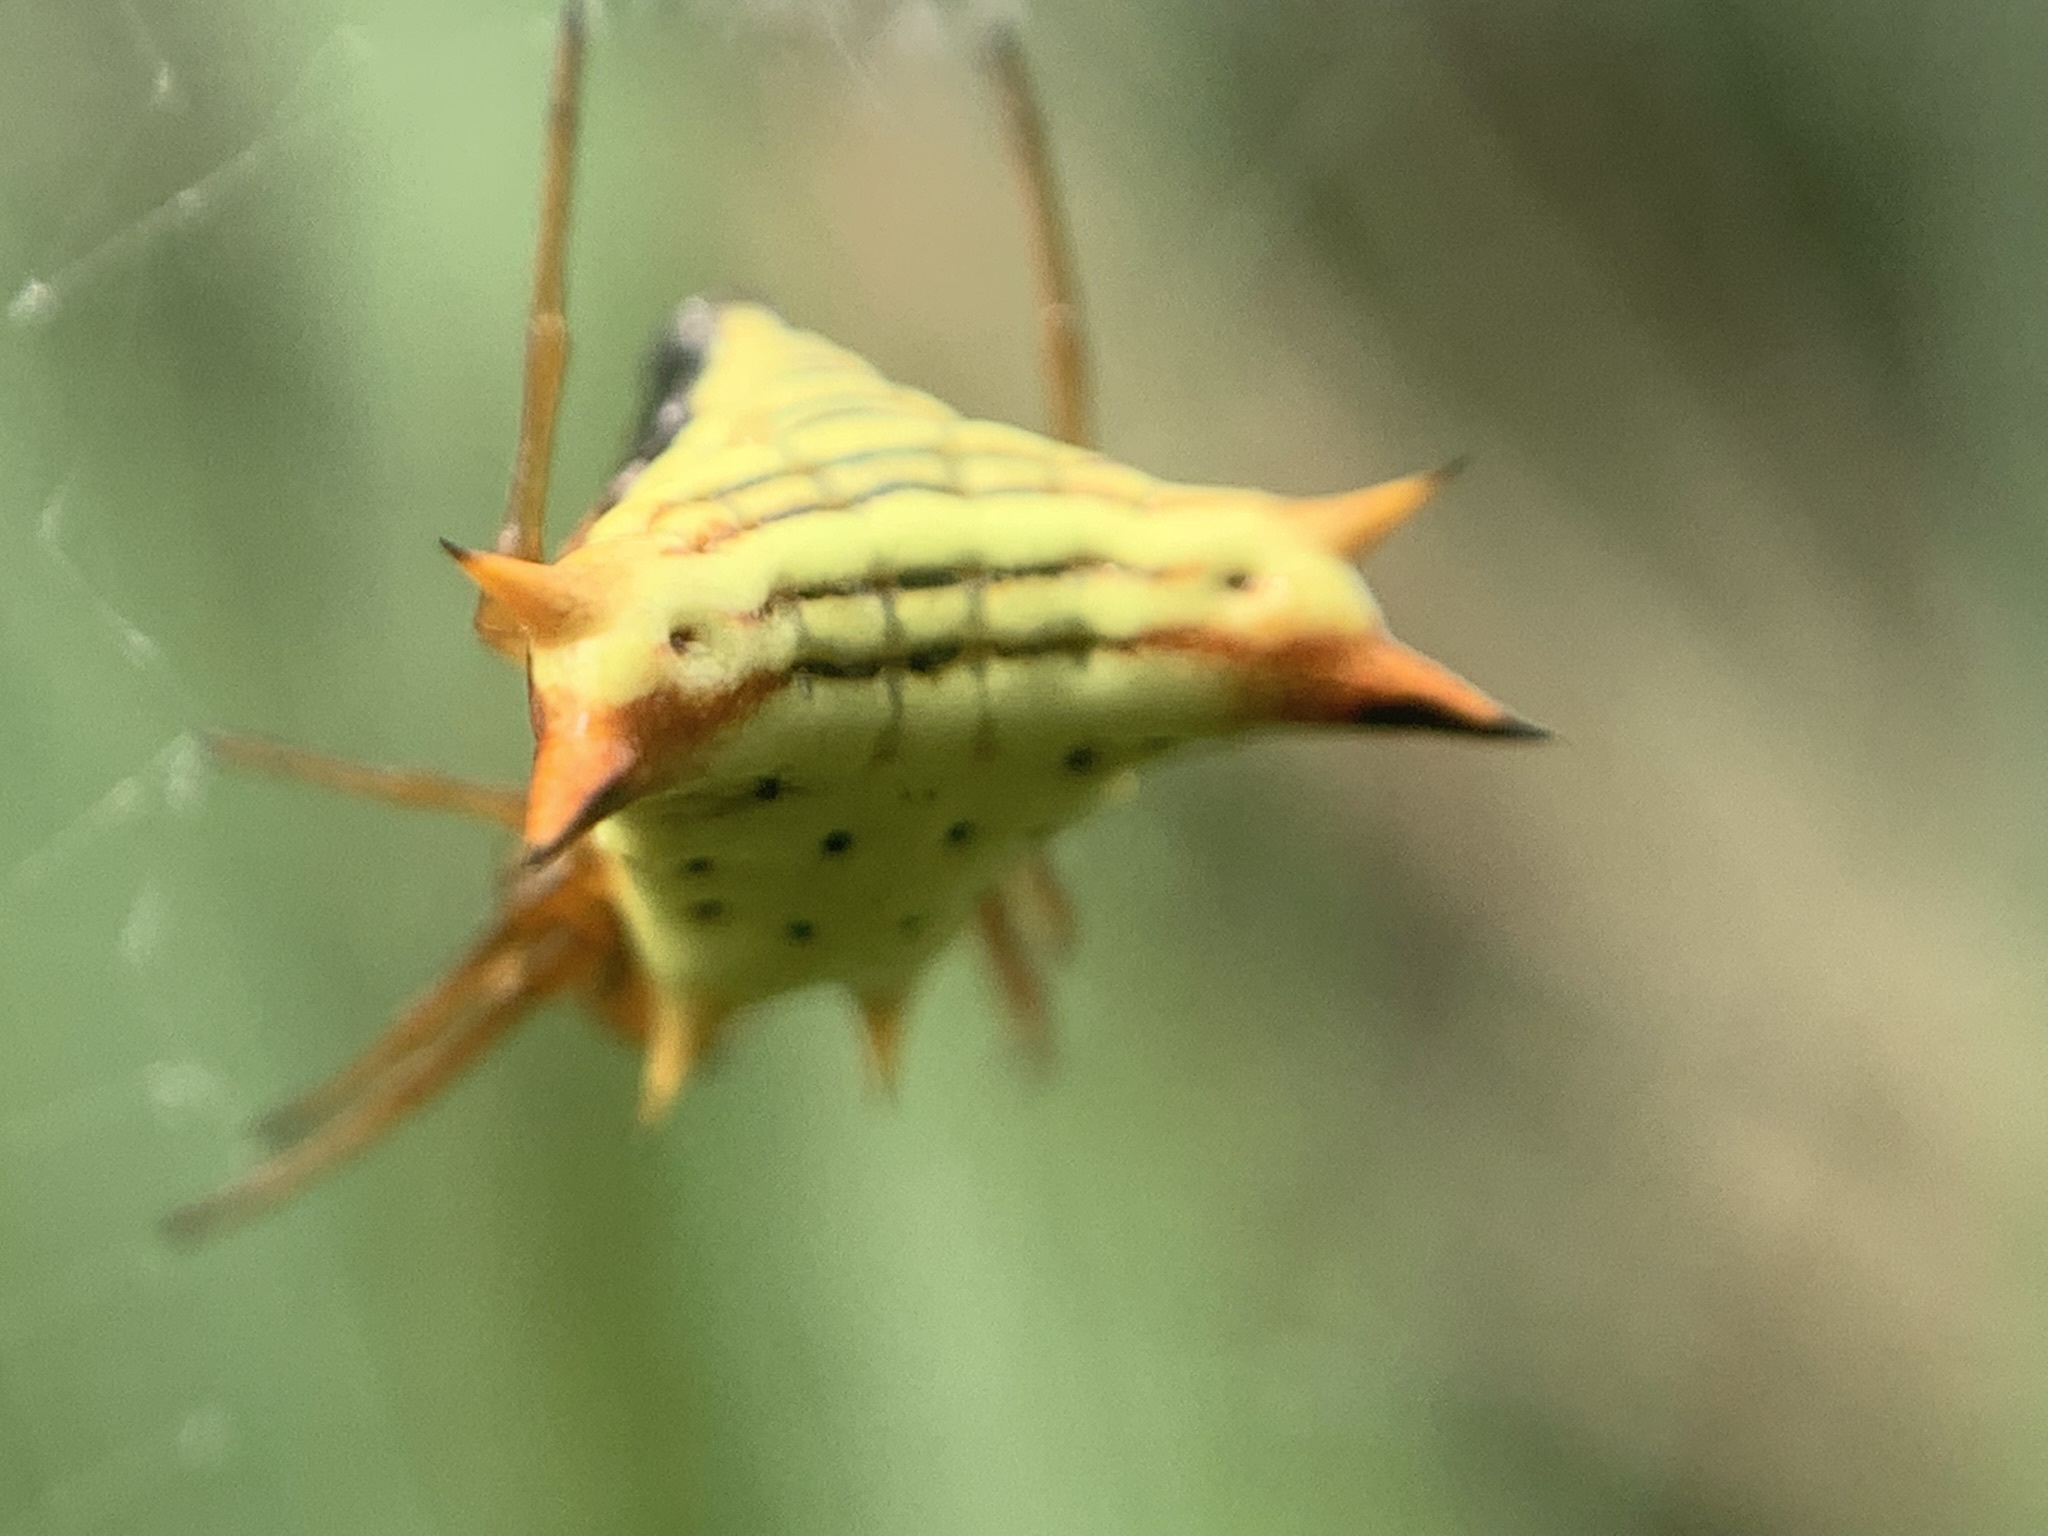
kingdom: Animalia
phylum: Arthropoda
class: Arachnida
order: Araneae
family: Araneidae
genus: Micrathena
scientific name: Micrathena furcata
